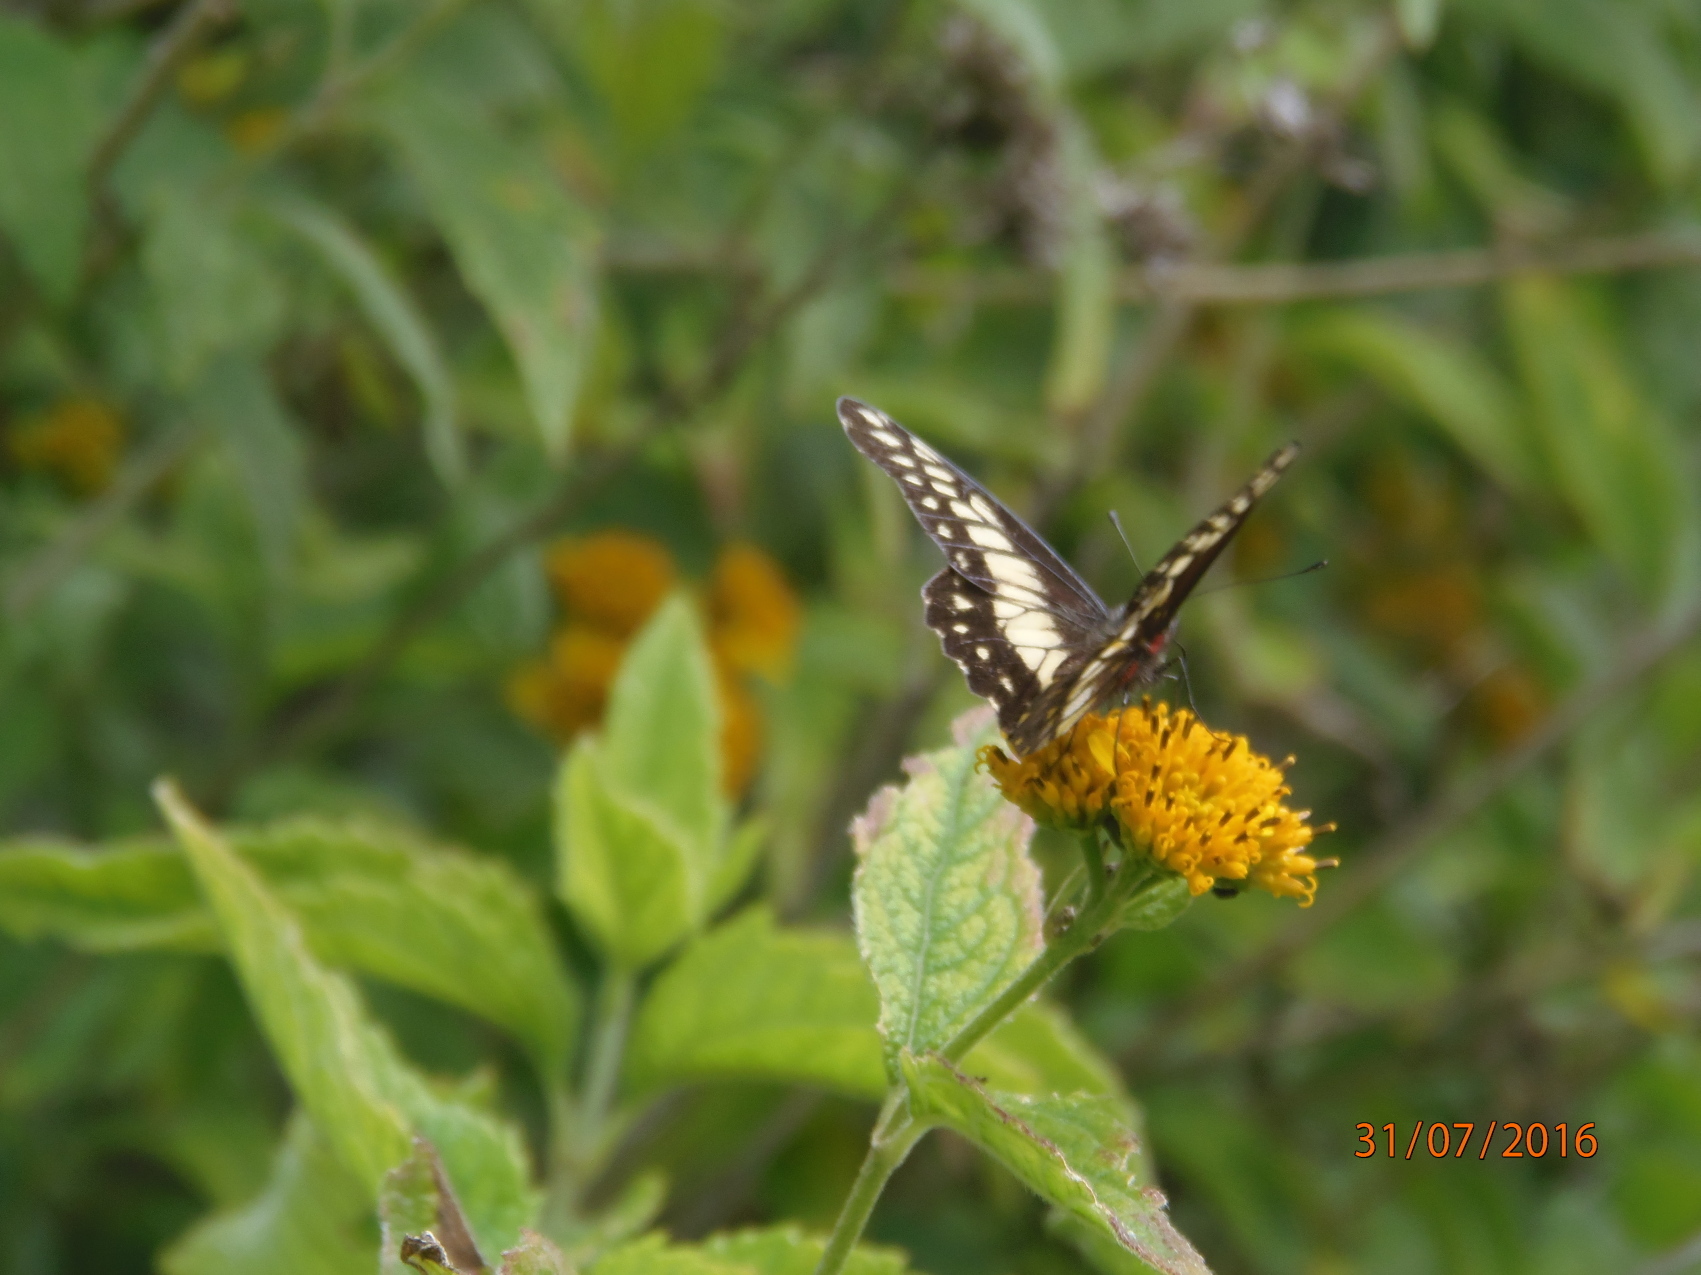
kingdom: Animalia
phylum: Arthropoda
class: Insecta
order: Lepidoptera
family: Pieridae
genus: Archonias
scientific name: Archonias nimbice
